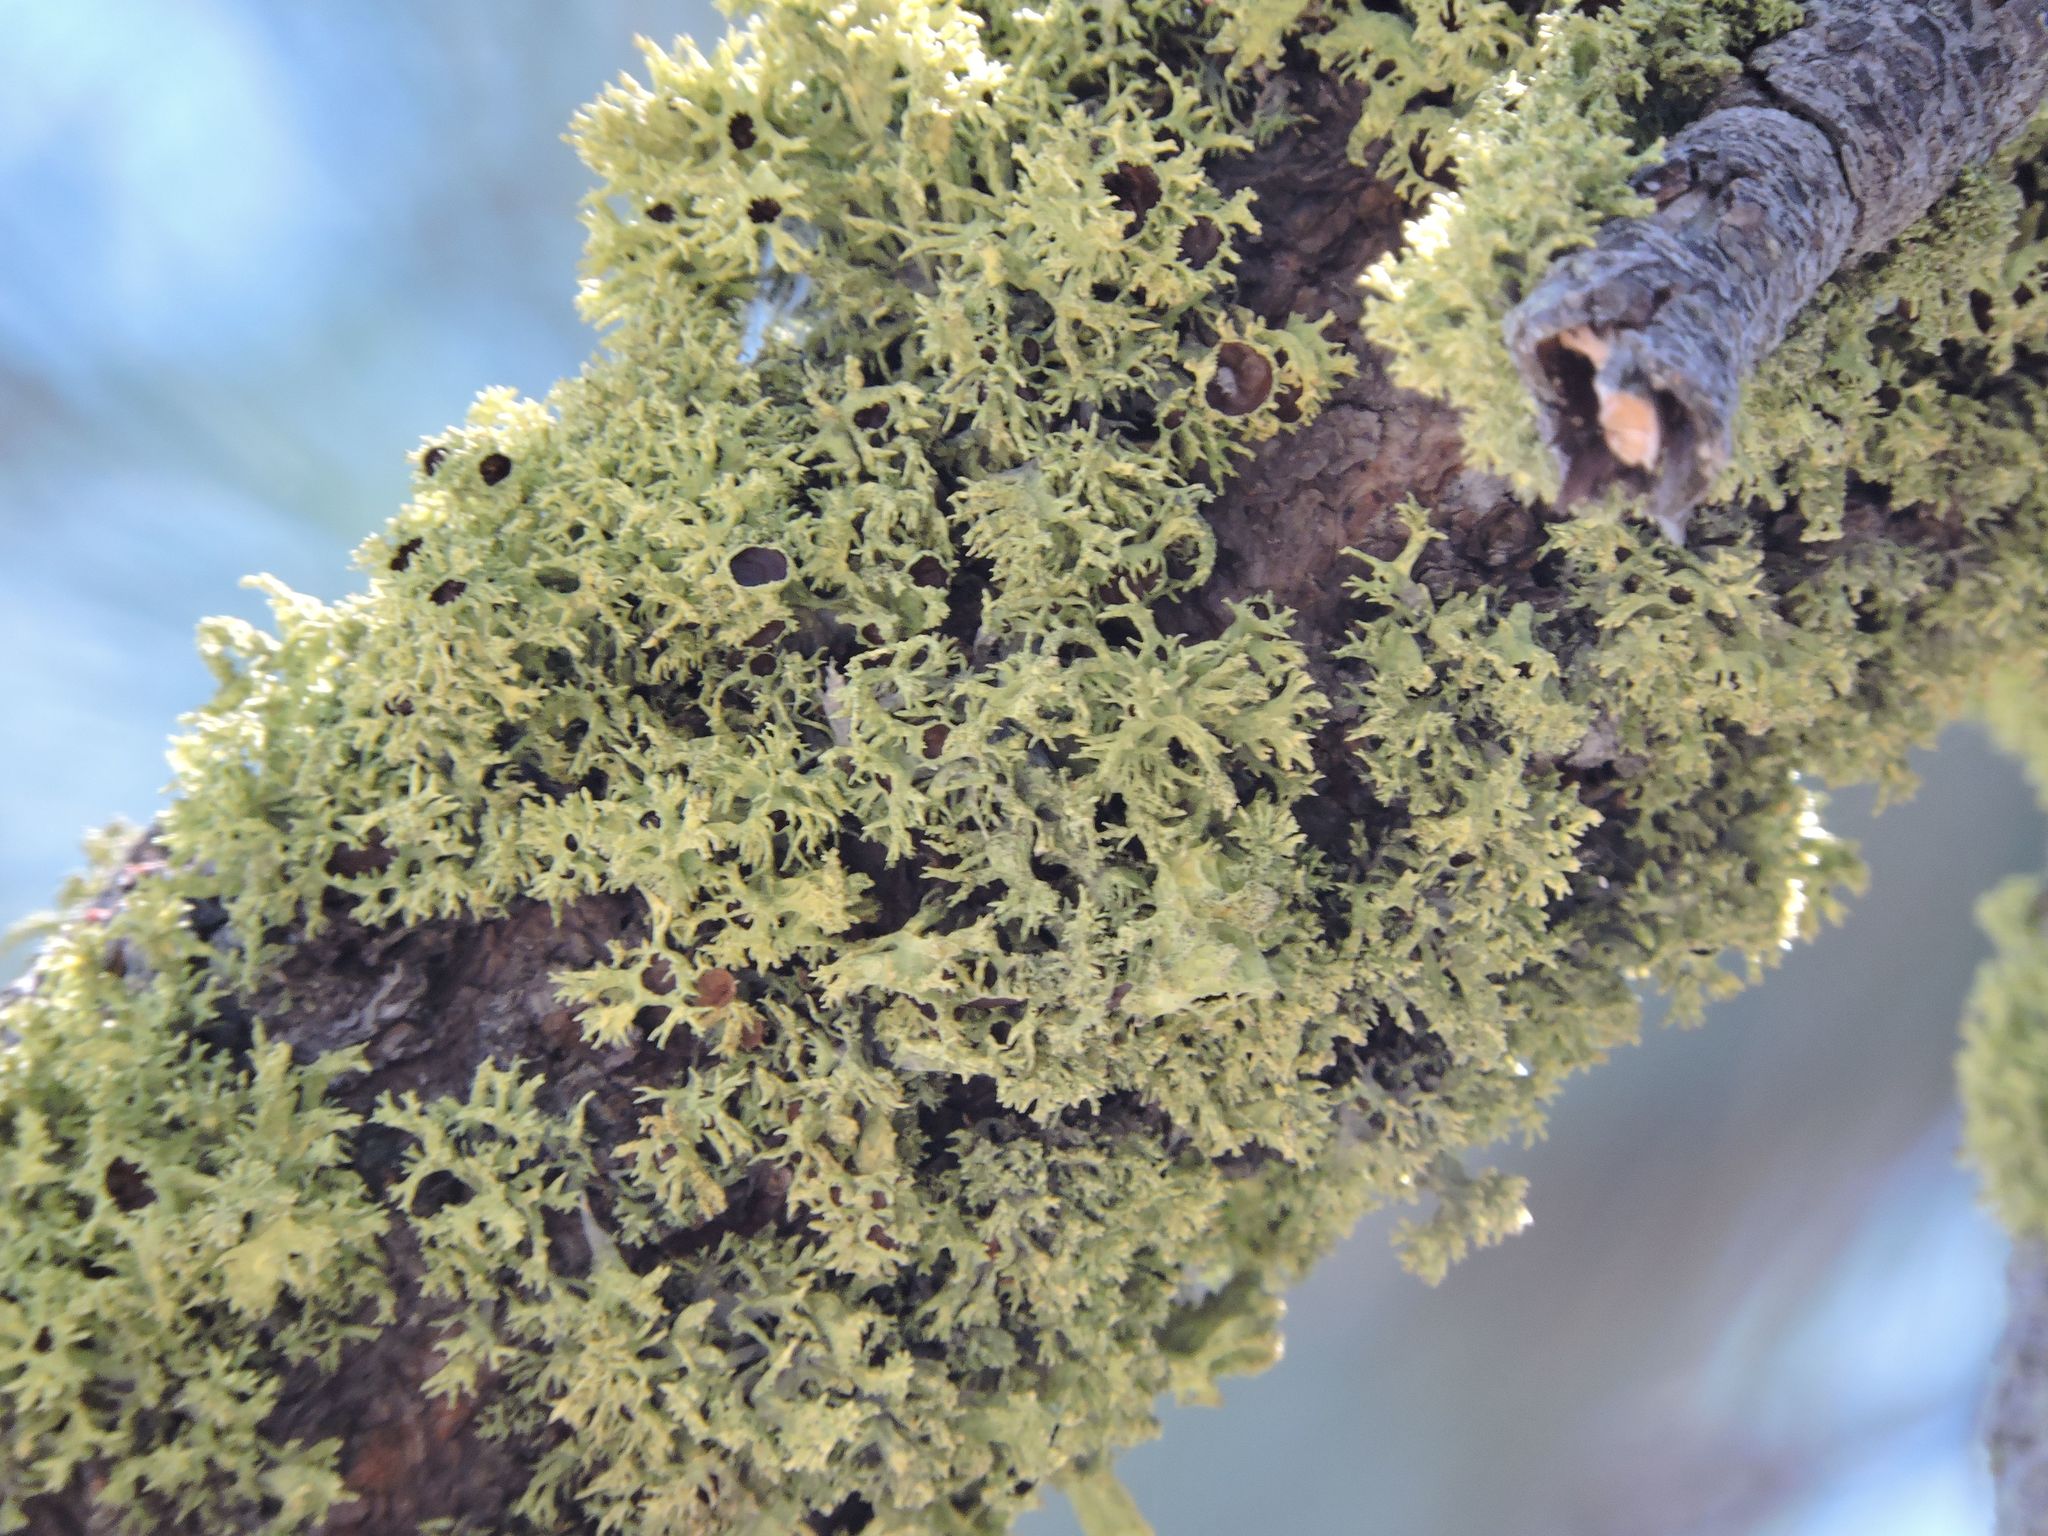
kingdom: Fungi
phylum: Ascomycota
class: Lecanoromycetes
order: Lecanorales
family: Parmeliaceae
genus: Letharia
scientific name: Letharia columbiana
